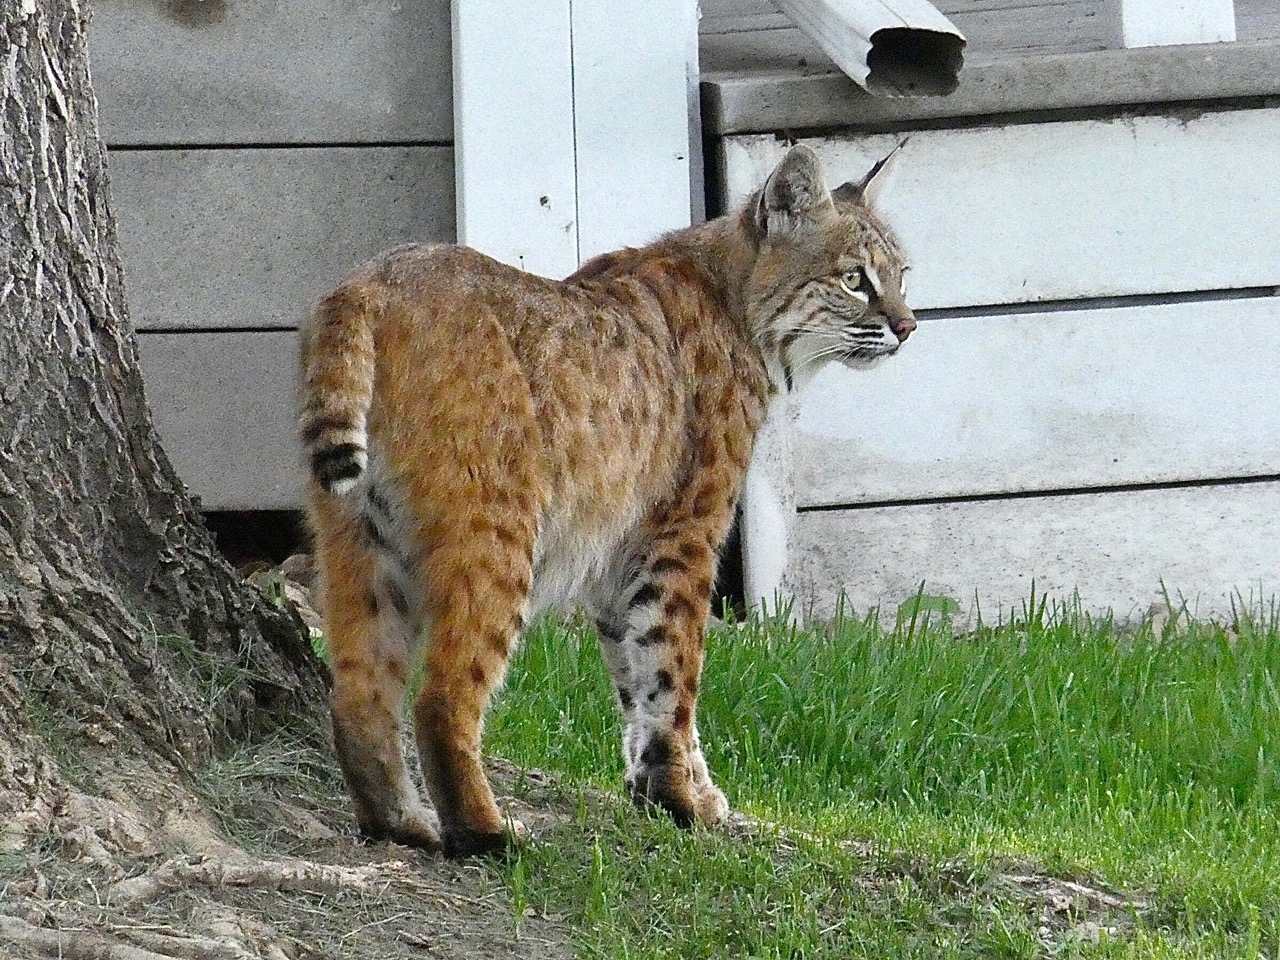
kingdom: Animalia
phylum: Chordata
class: Mammalia
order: Carnivora
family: Felidae
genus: Lynx
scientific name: Lynx rufus
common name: Bobcat
